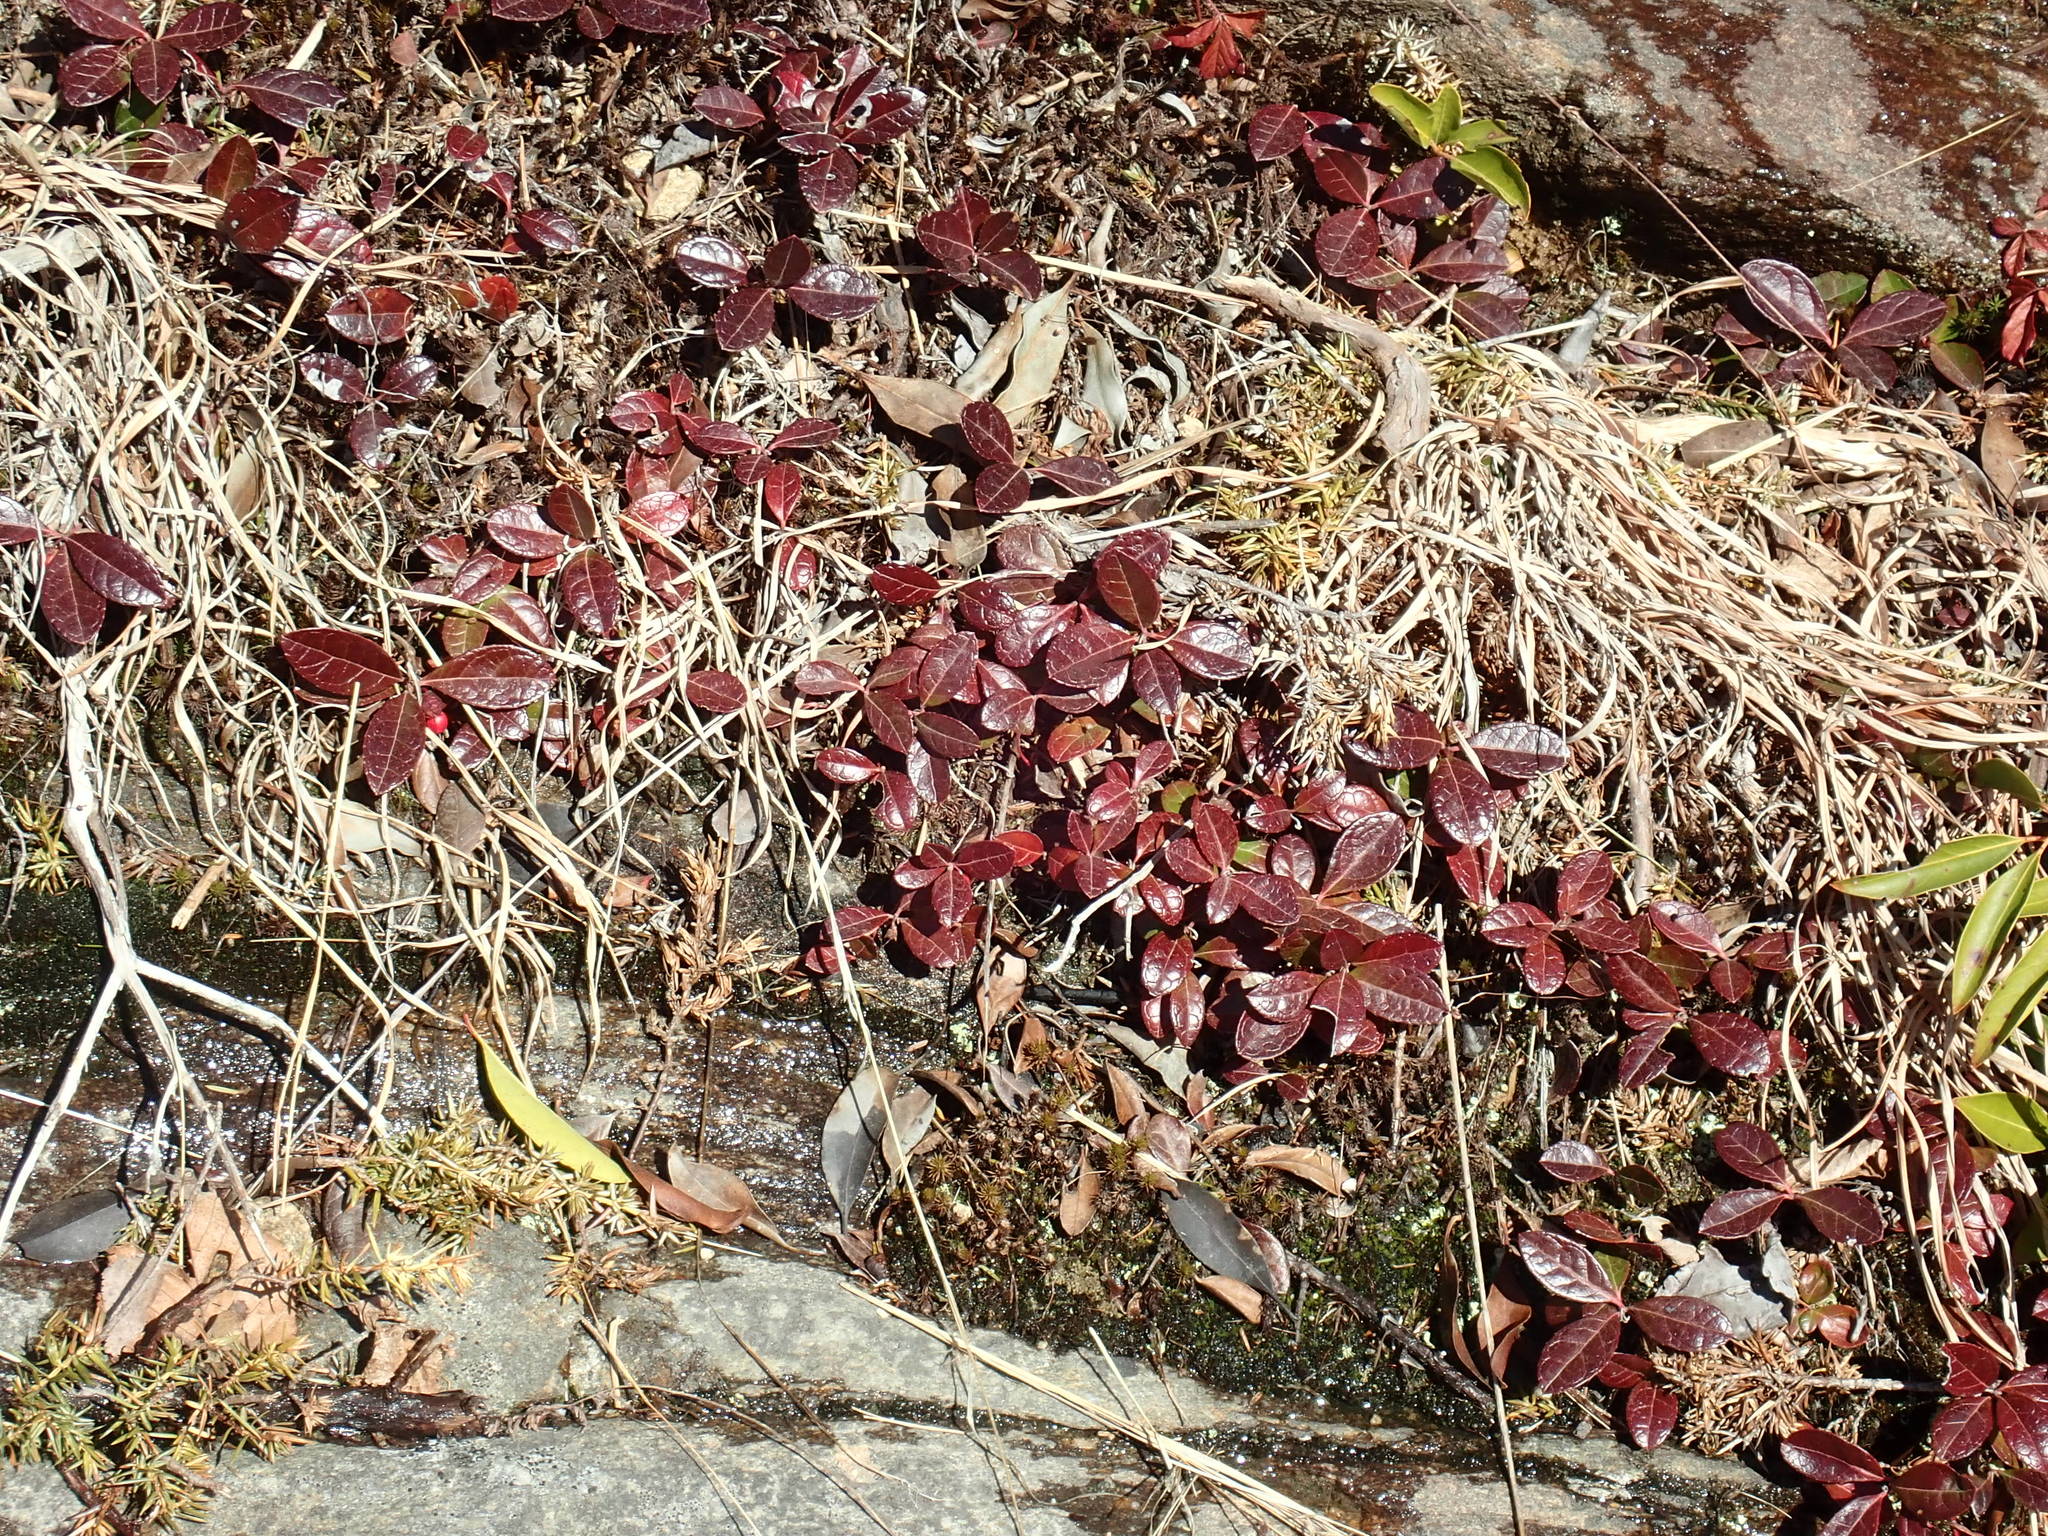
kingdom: Plantae
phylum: Tracheophyta
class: Magnoliopsida
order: Ericales
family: Ericaceae
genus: Gaultheria
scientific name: Gaultheria procumbens
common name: Checkerberry
